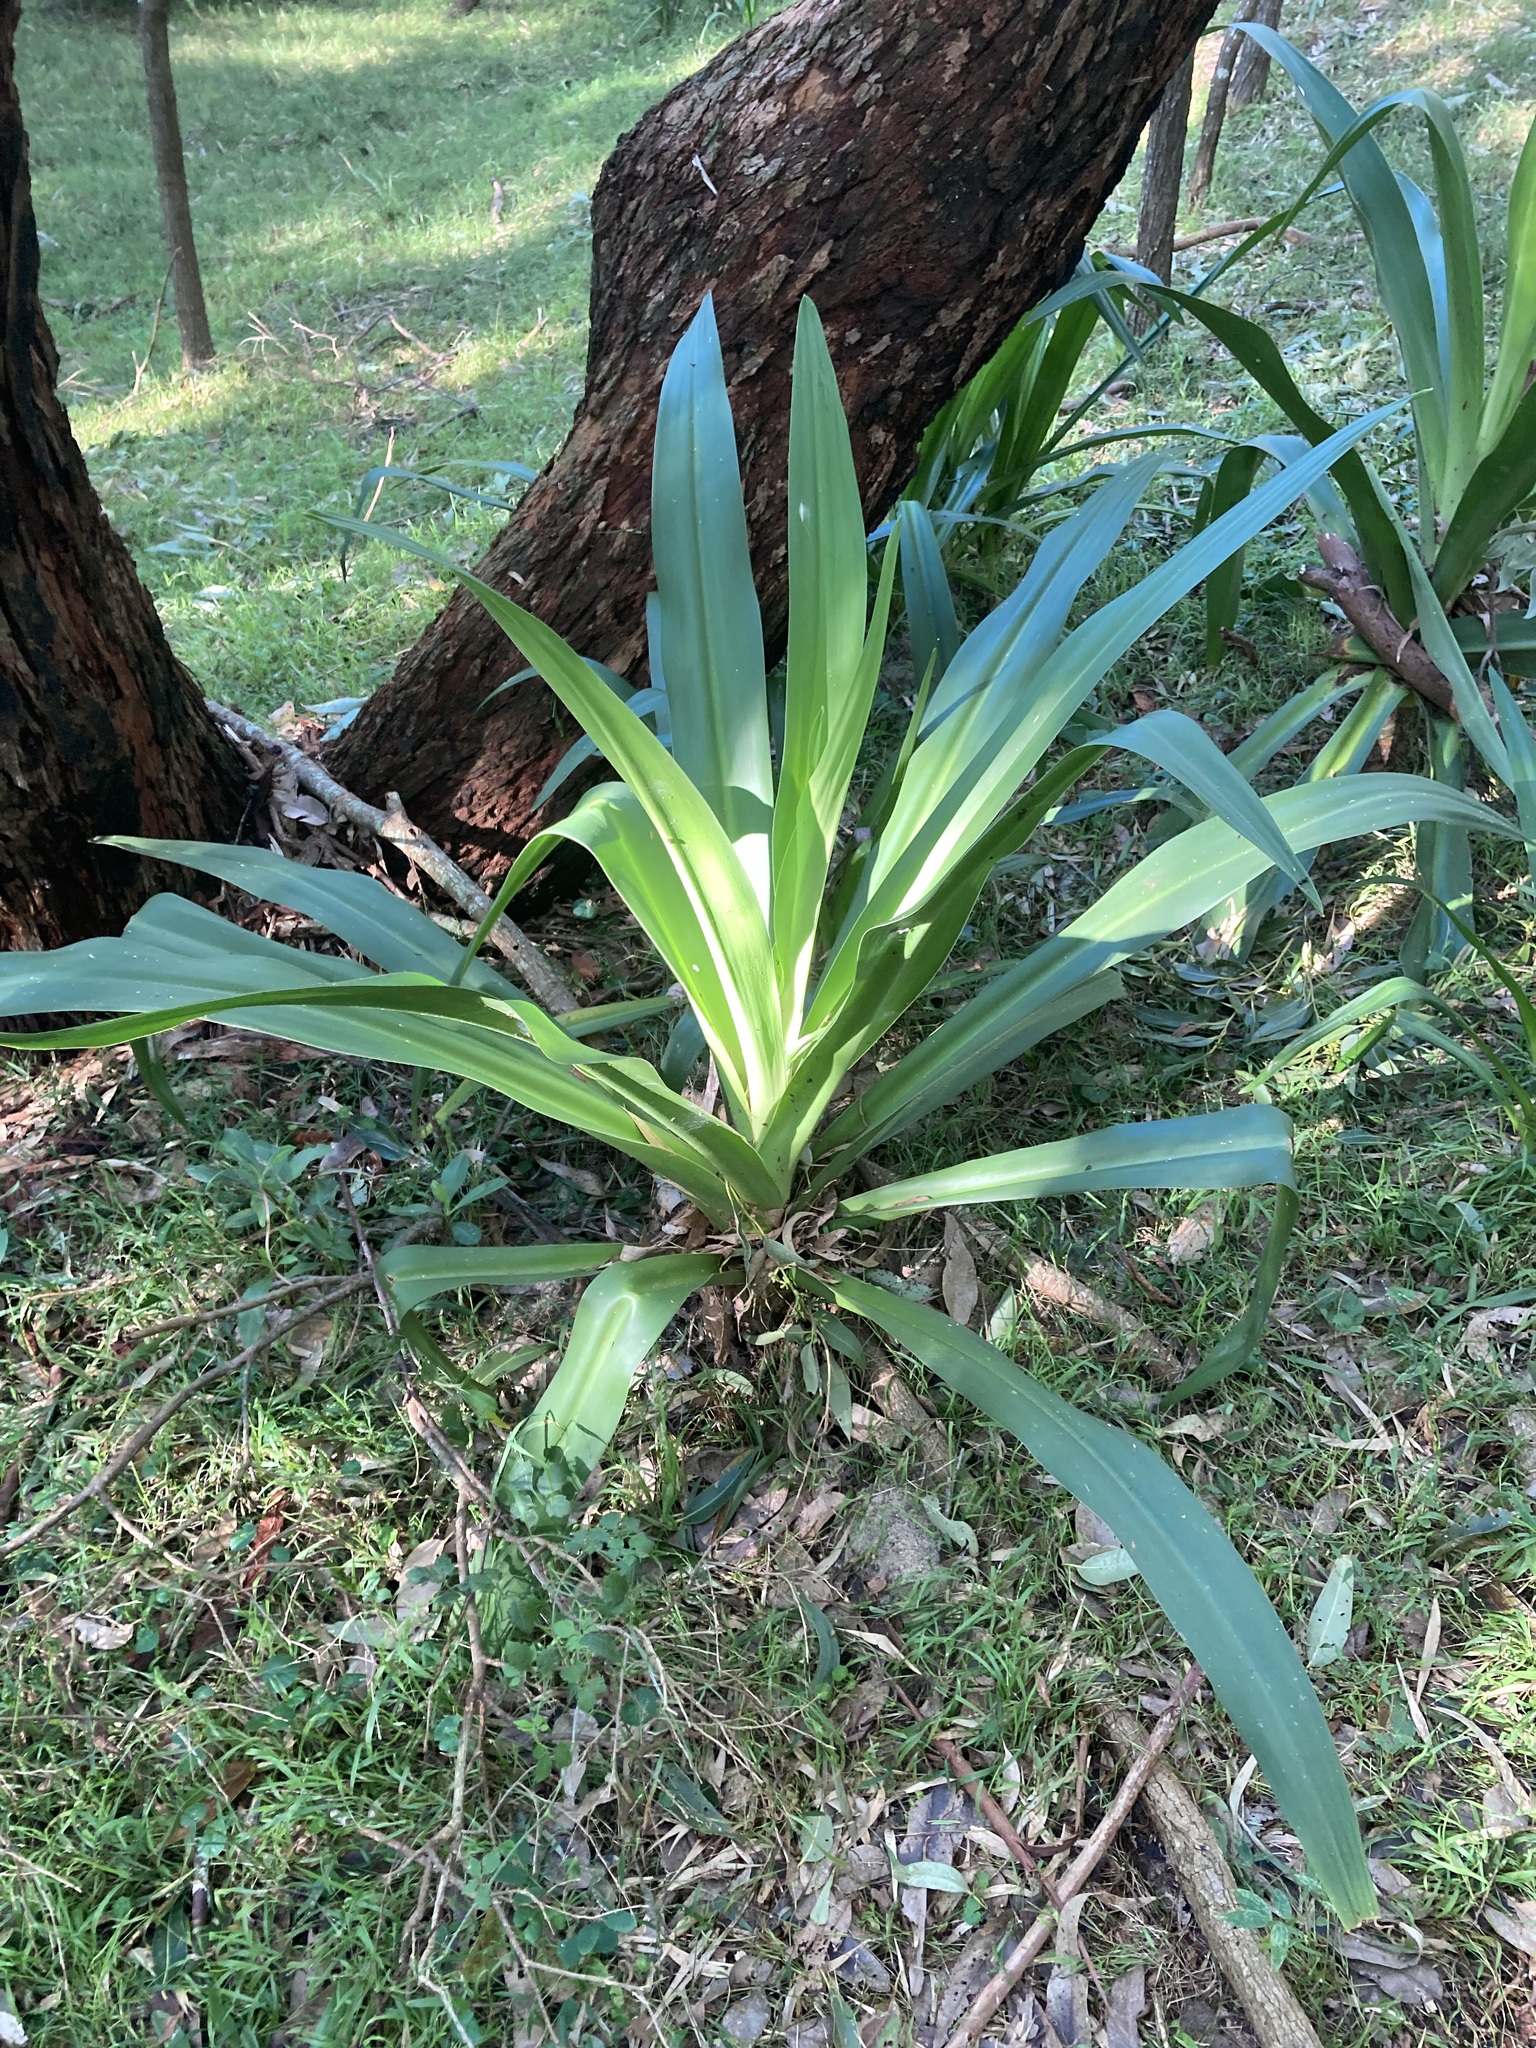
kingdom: Plantae
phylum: Tracheophyta
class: Liliopsida
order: Asparagales
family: Amaryllidaceae
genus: Crinum
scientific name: Crinum pedunculatum
